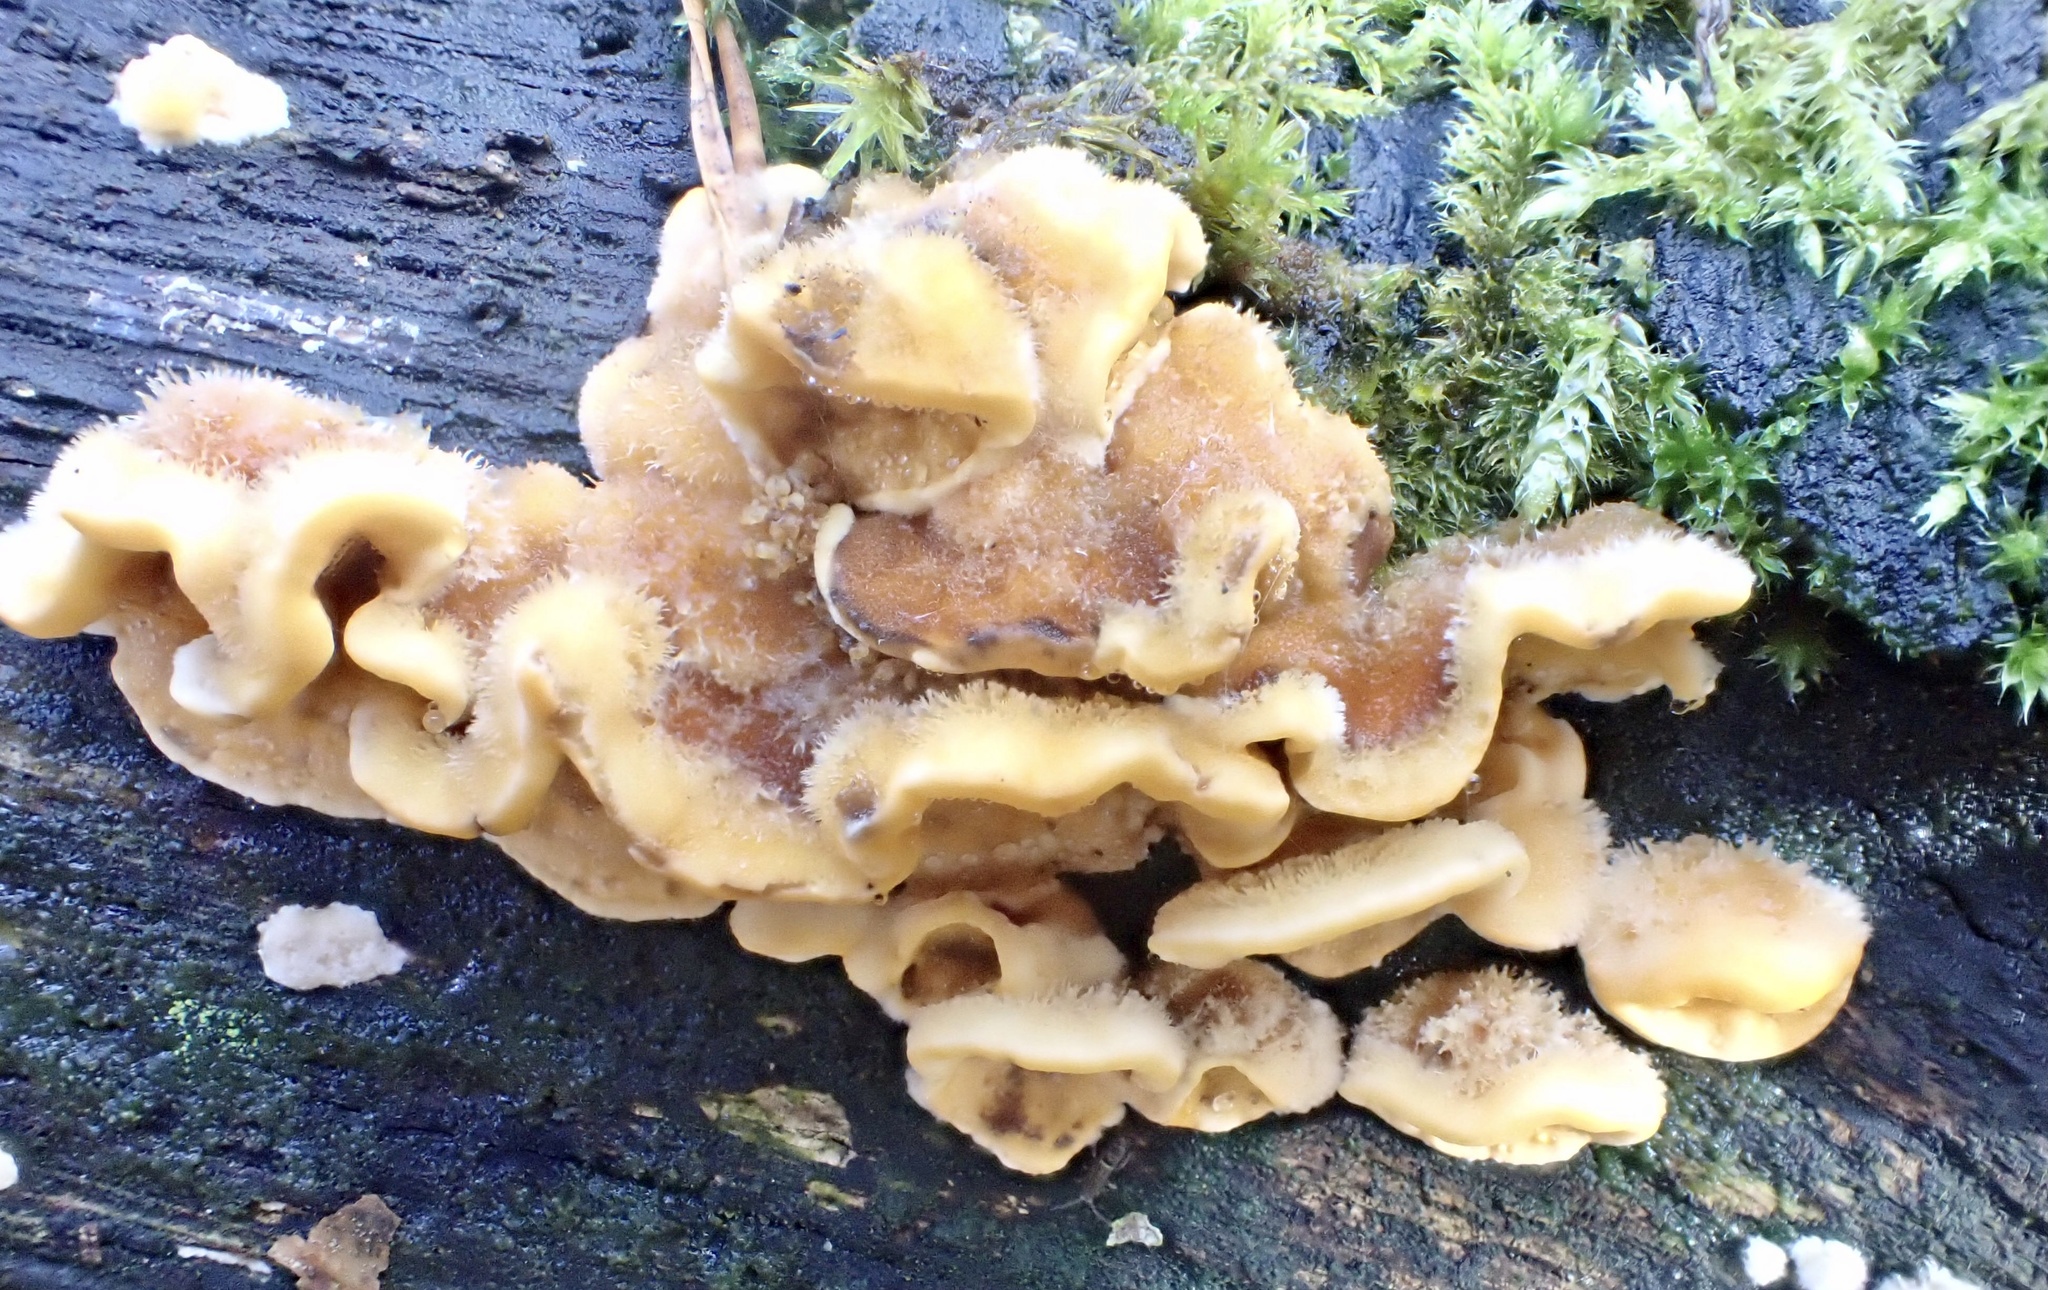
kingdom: Fungi
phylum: Basidiomycota
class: Agaricomycetes
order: Russulales
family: Stereaceae
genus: Stereum
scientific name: Stereum hirsutum
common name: Hairy curtain crust
